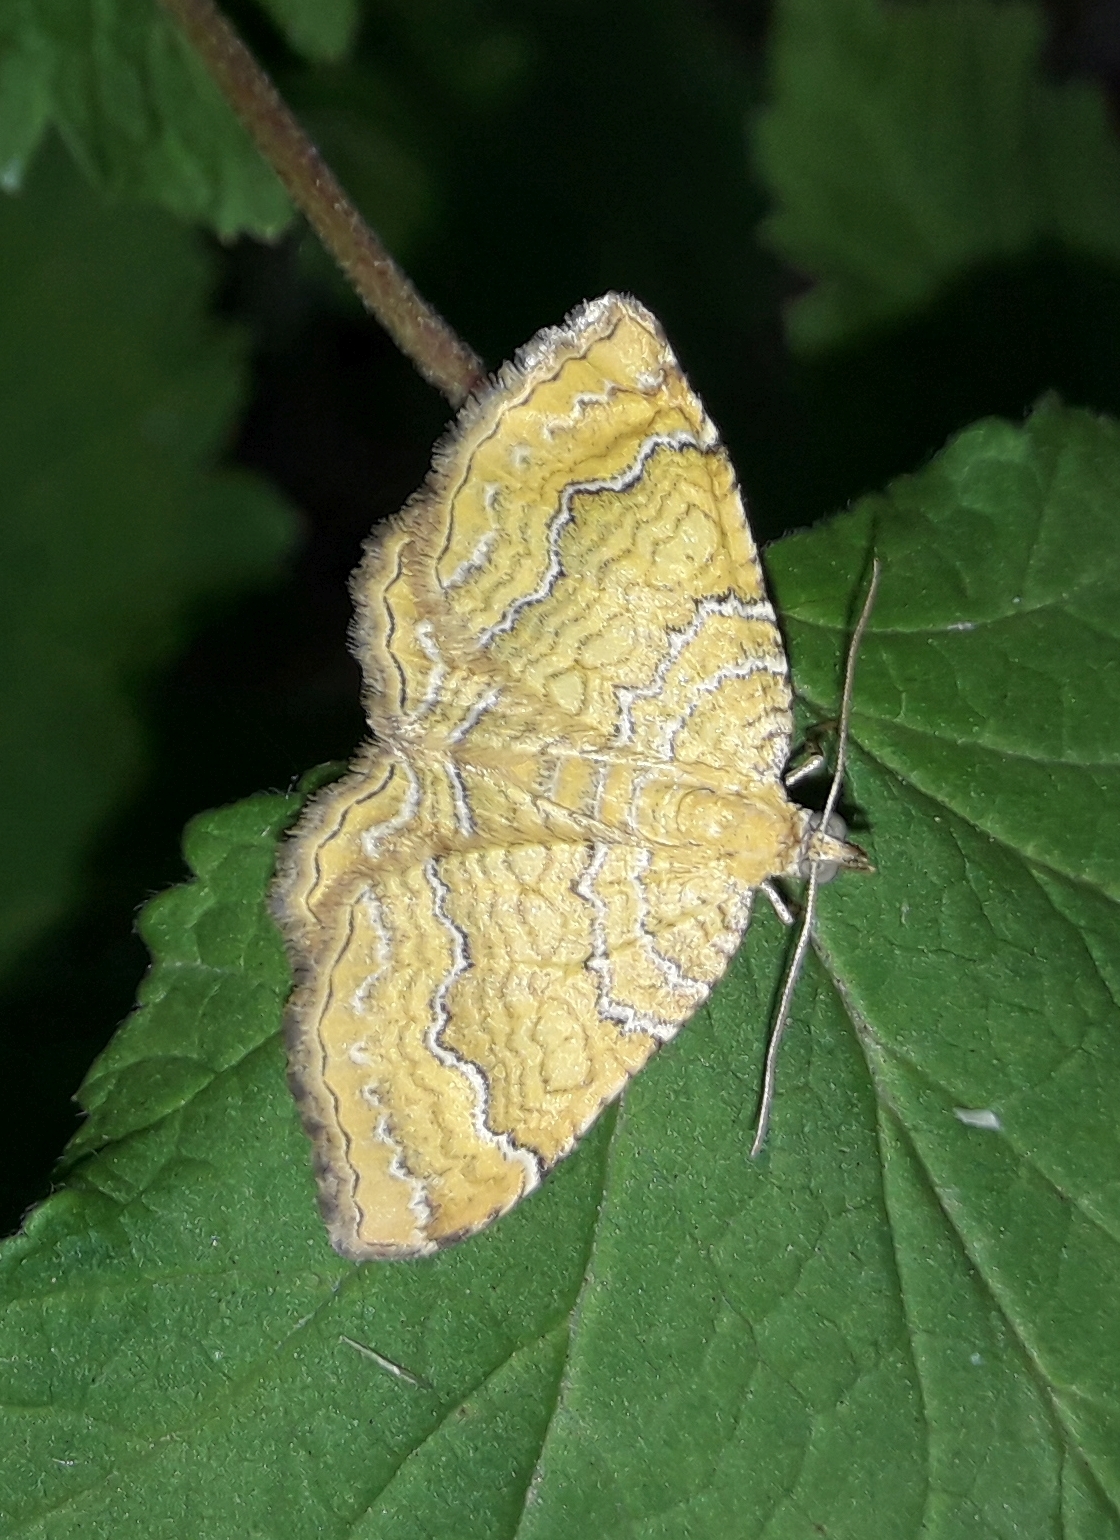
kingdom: Animalia
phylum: Arthropoda
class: Insecta
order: Lepidoptera
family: Geometridae
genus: Camptogramma
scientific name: Camptogramma bilineata
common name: Yellow shell
